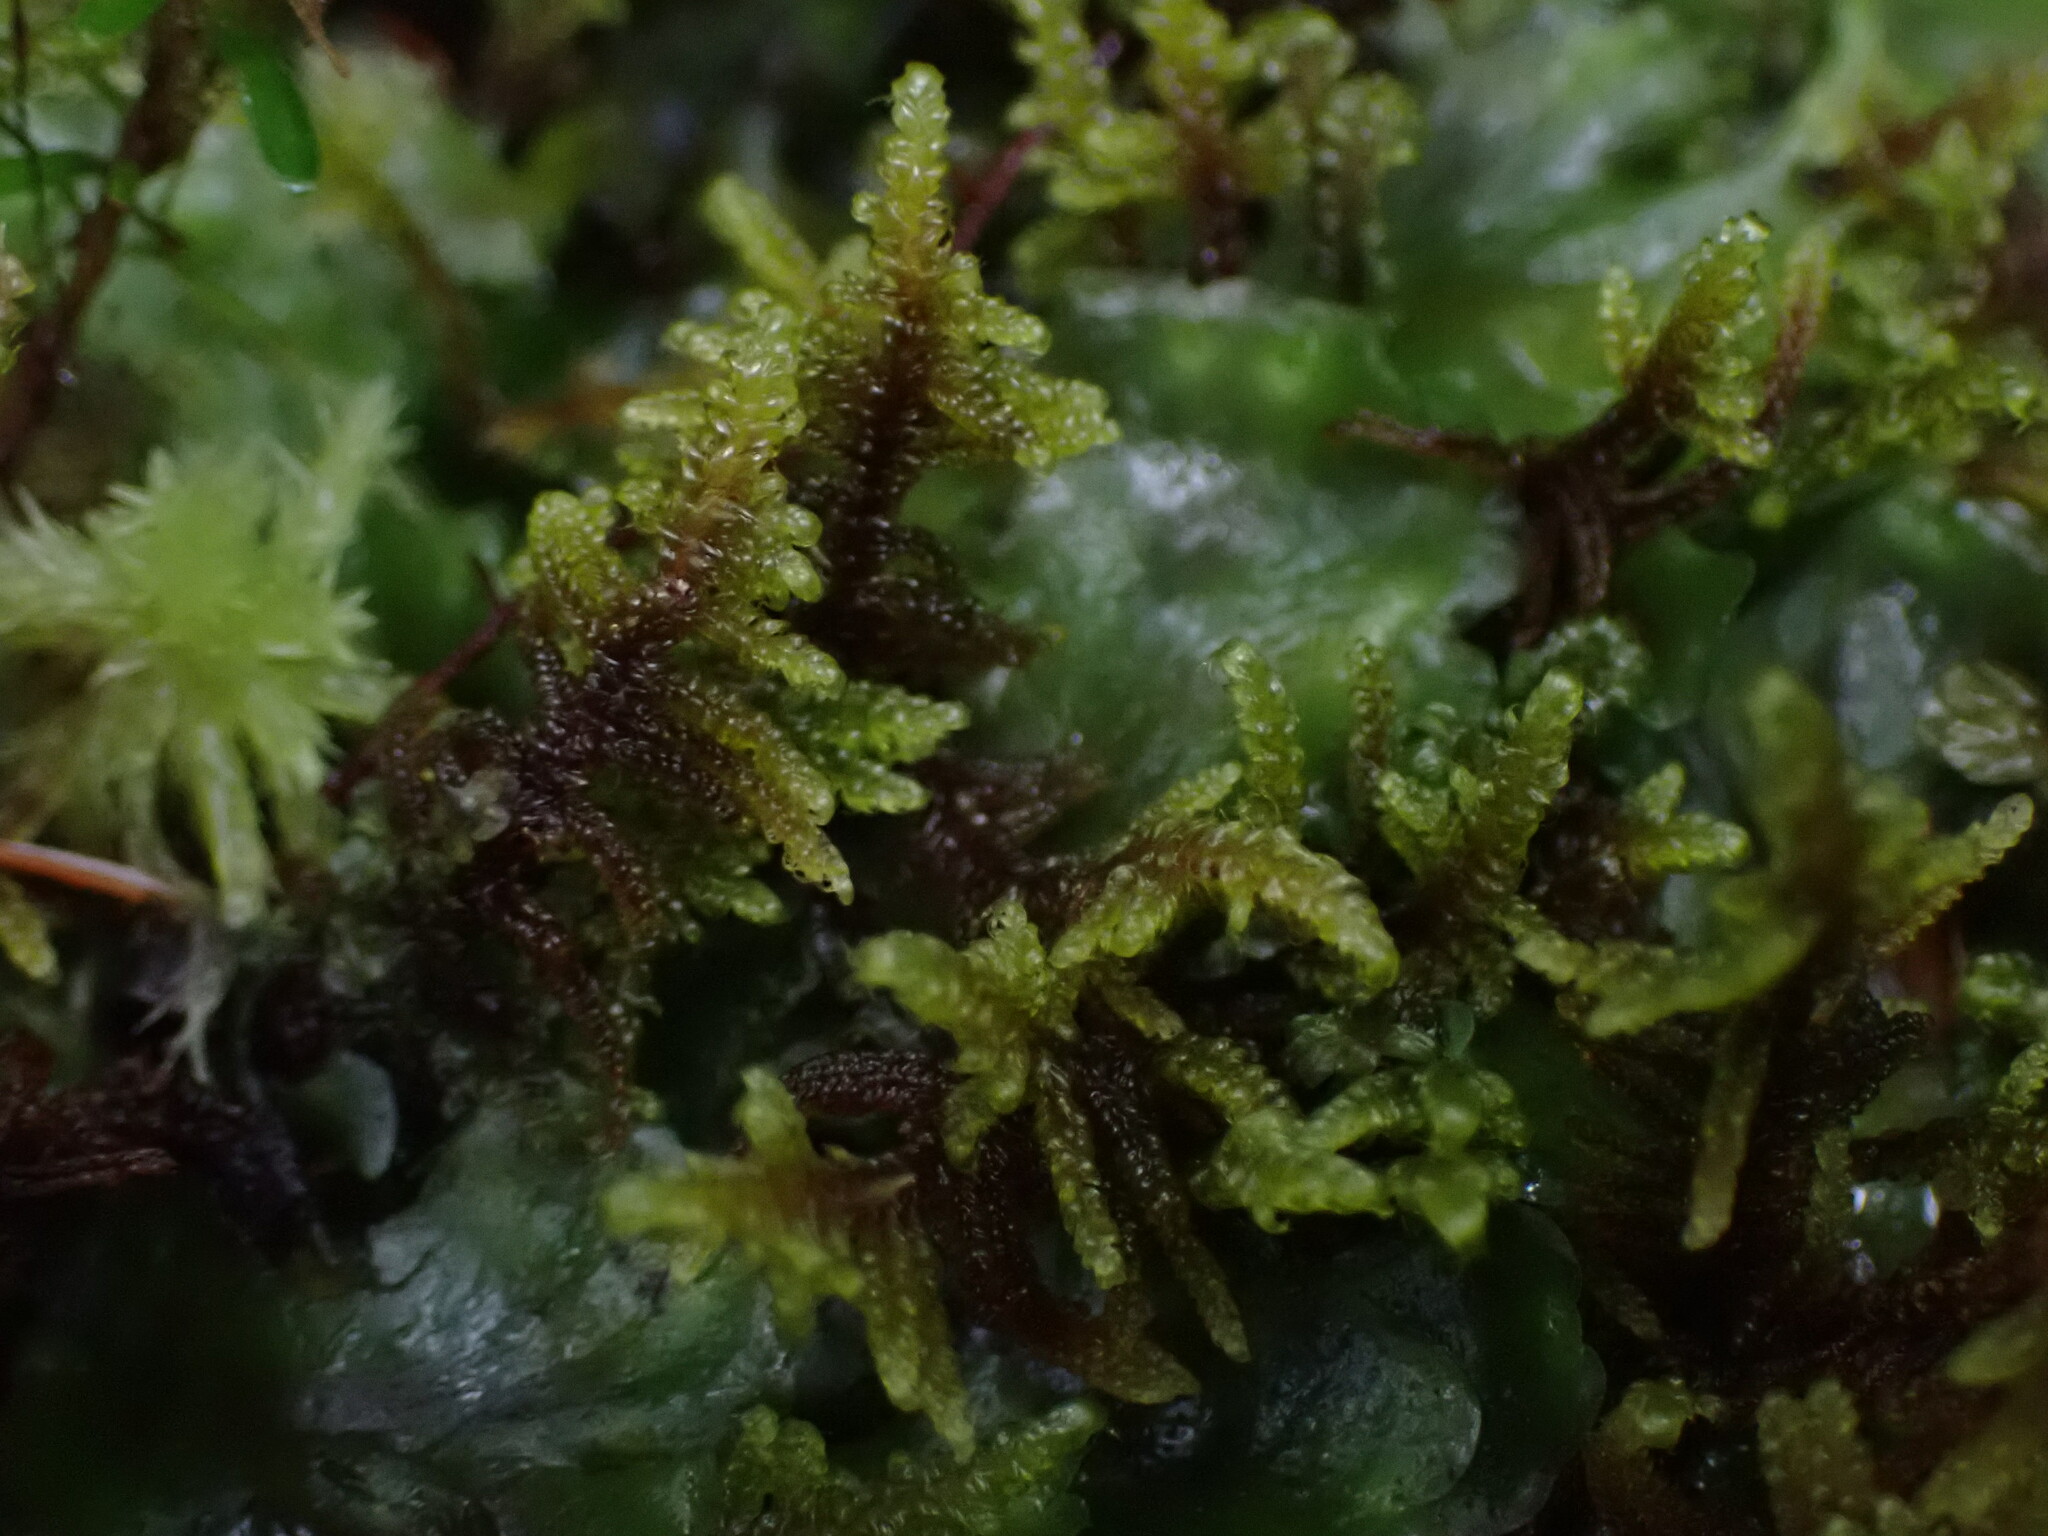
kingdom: Plantae
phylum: Bryophyta
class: Bryopsida
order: Hypnales
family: Pylaisiaceae
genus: Calliergonellopsis
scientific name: Calliergonellopsis dieckii
